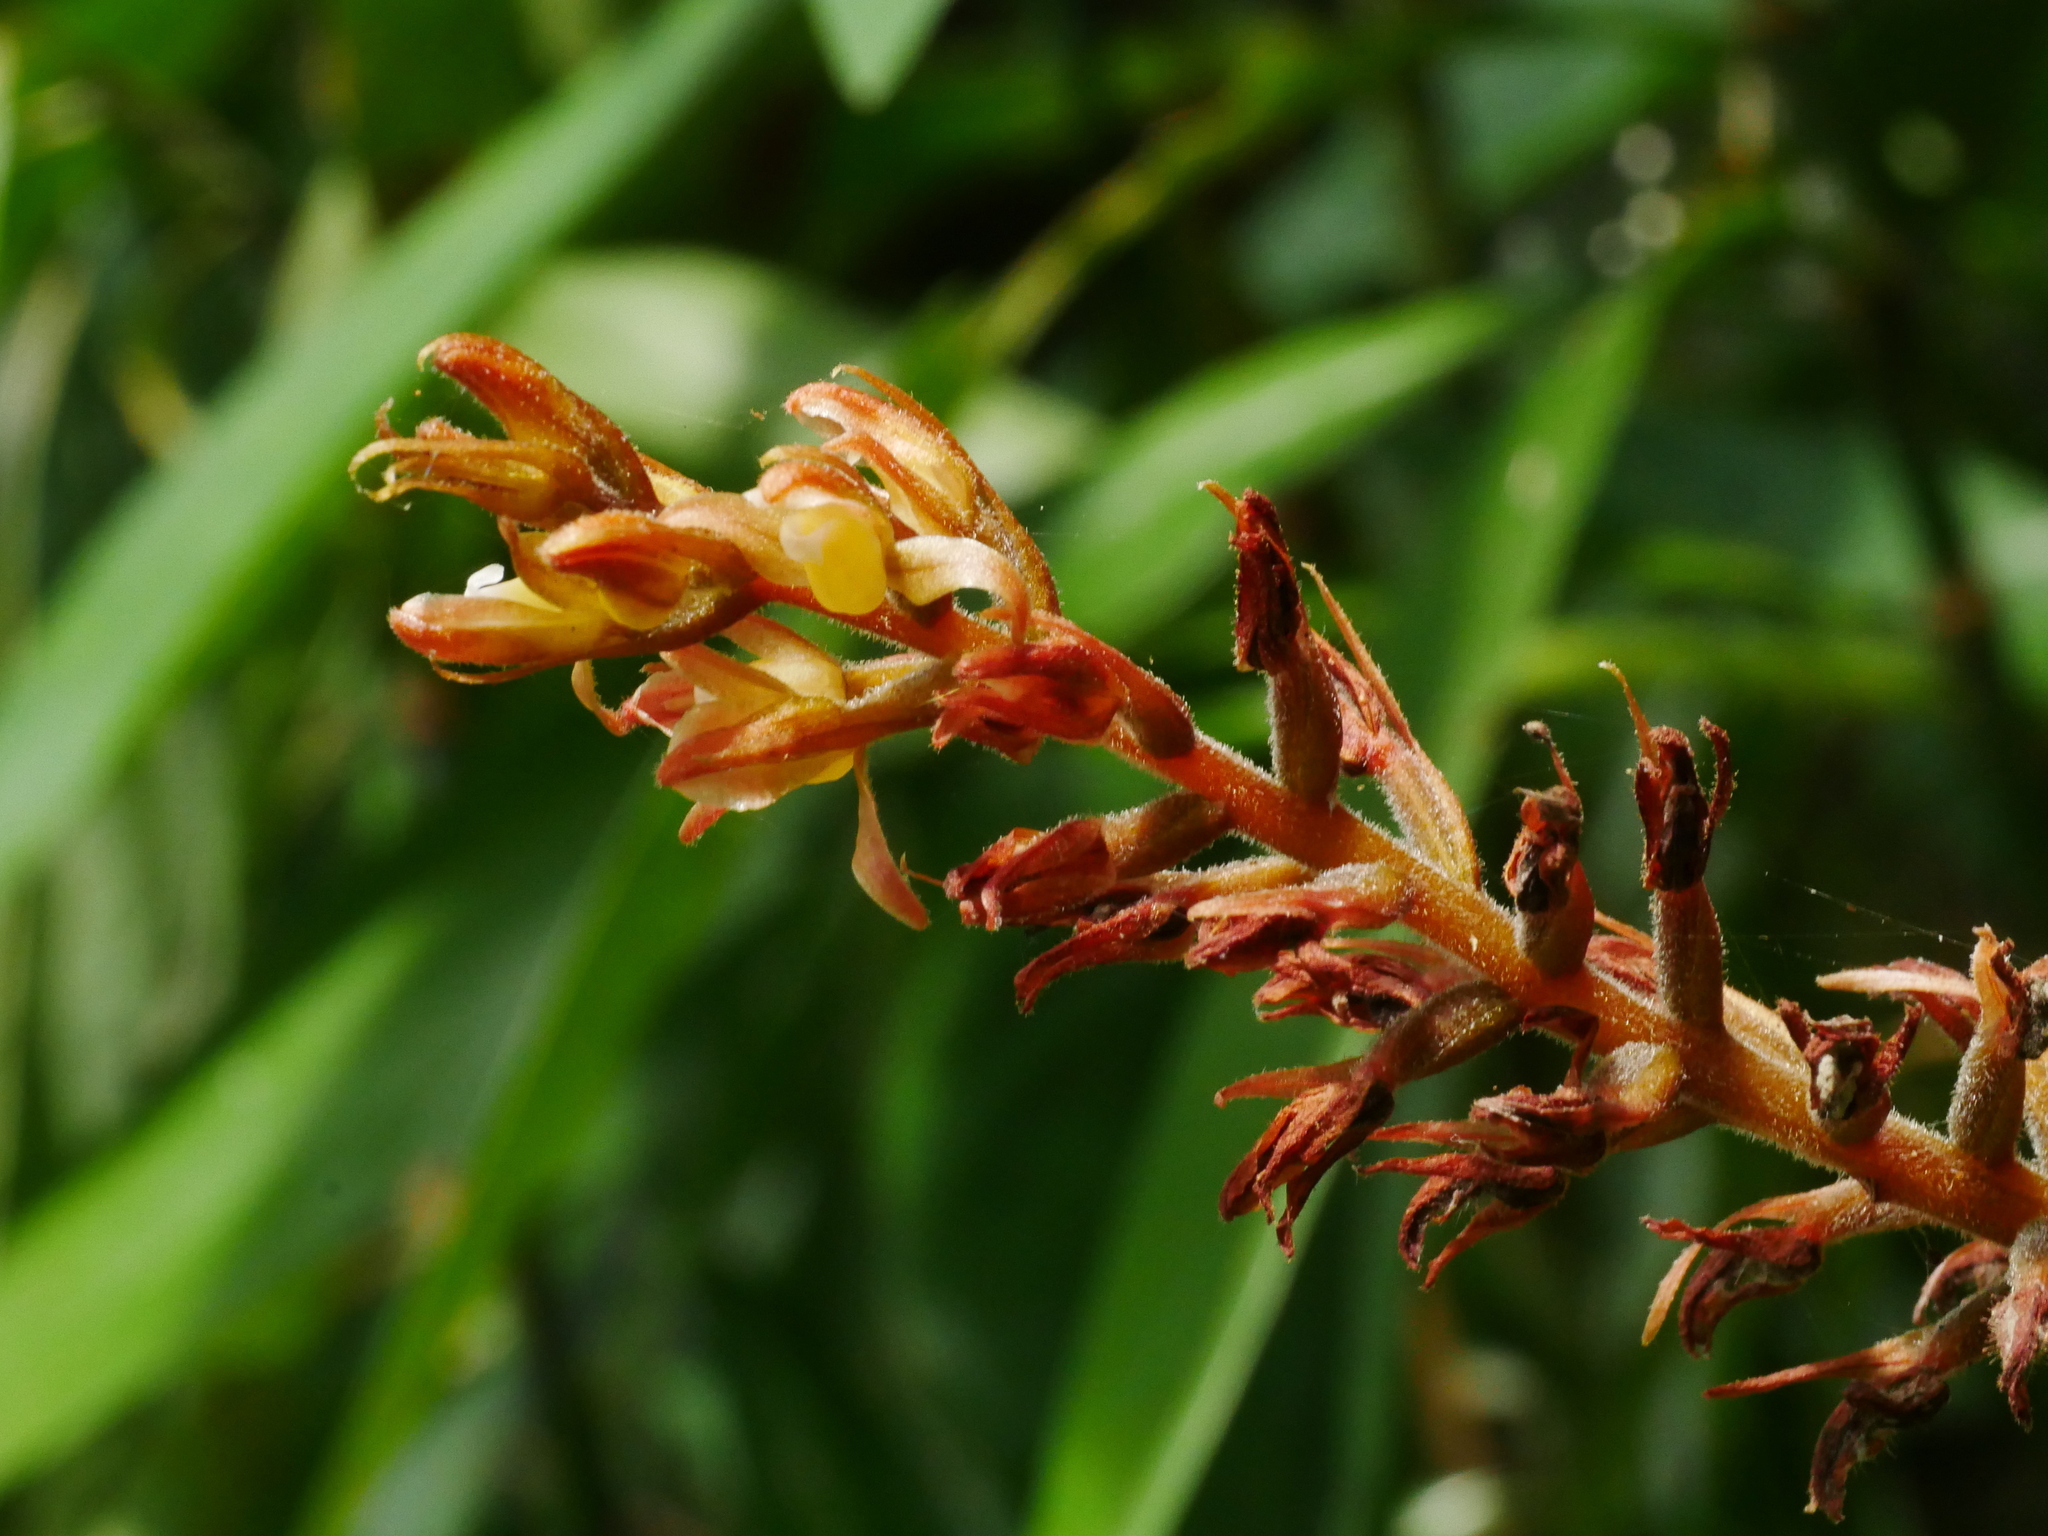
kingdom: Plantae
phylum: Tracheophyta
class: Liliopsida
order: Asparagales
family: Orchidaceae
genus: Goodyera
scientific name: Goodyera rubicunda
